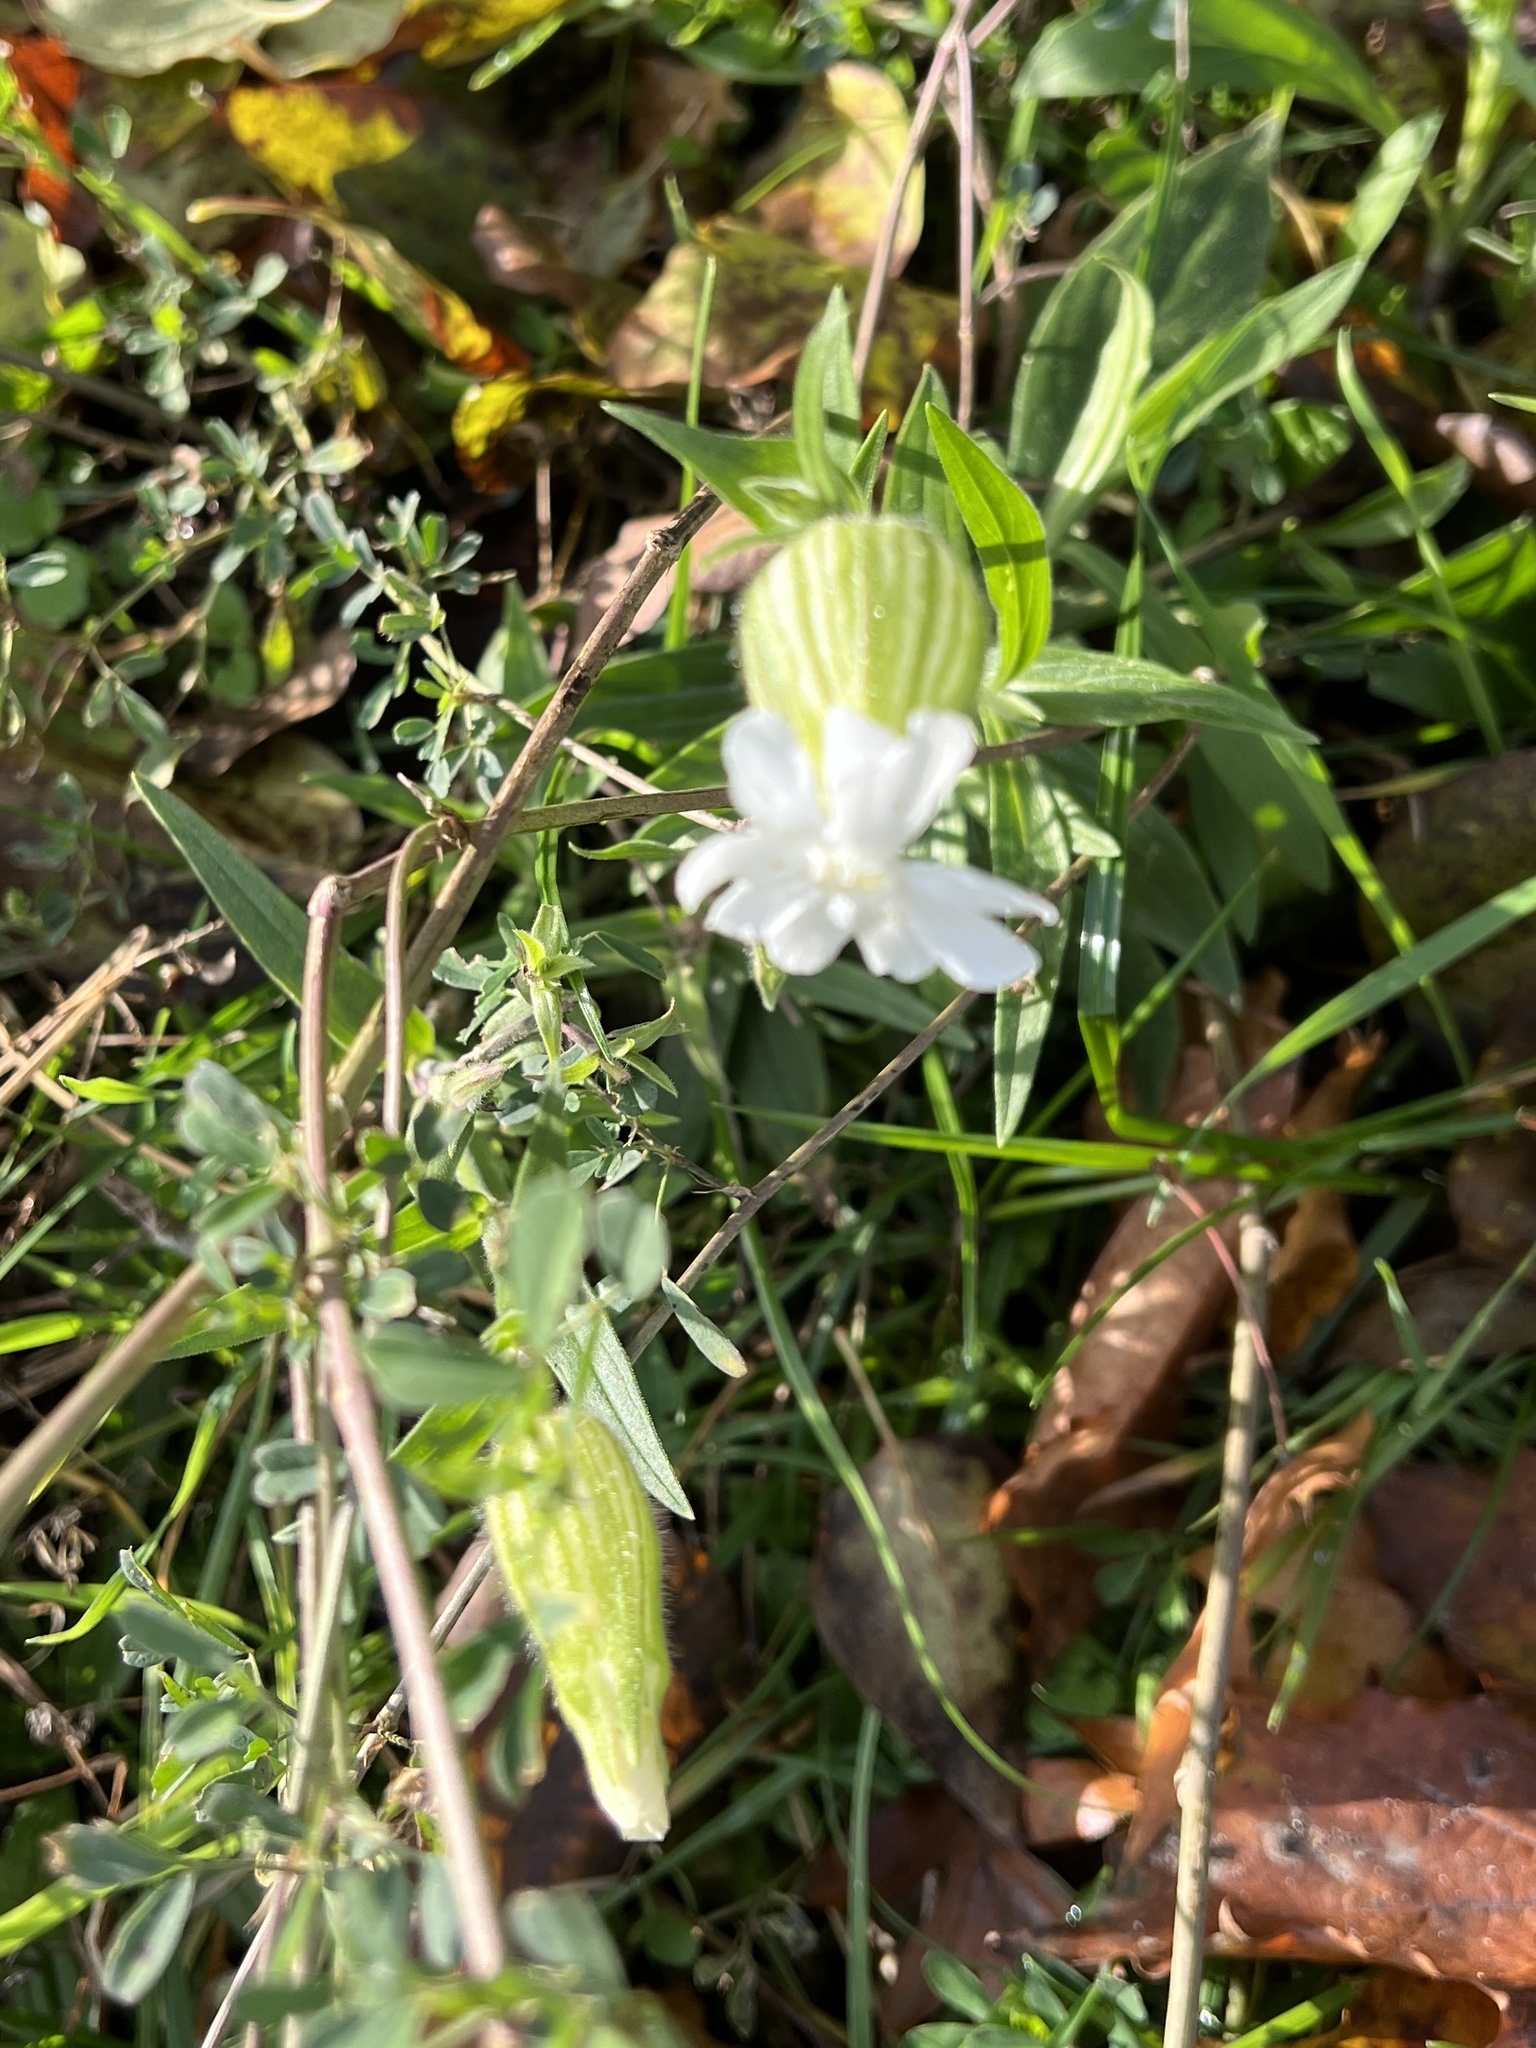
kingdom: Plantae
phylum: Tracheophyta
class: Magnoliopsida
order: Caryophyllales
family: Caryophyllaceae
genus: Silene
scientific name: Silene latifolia
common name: White campion
